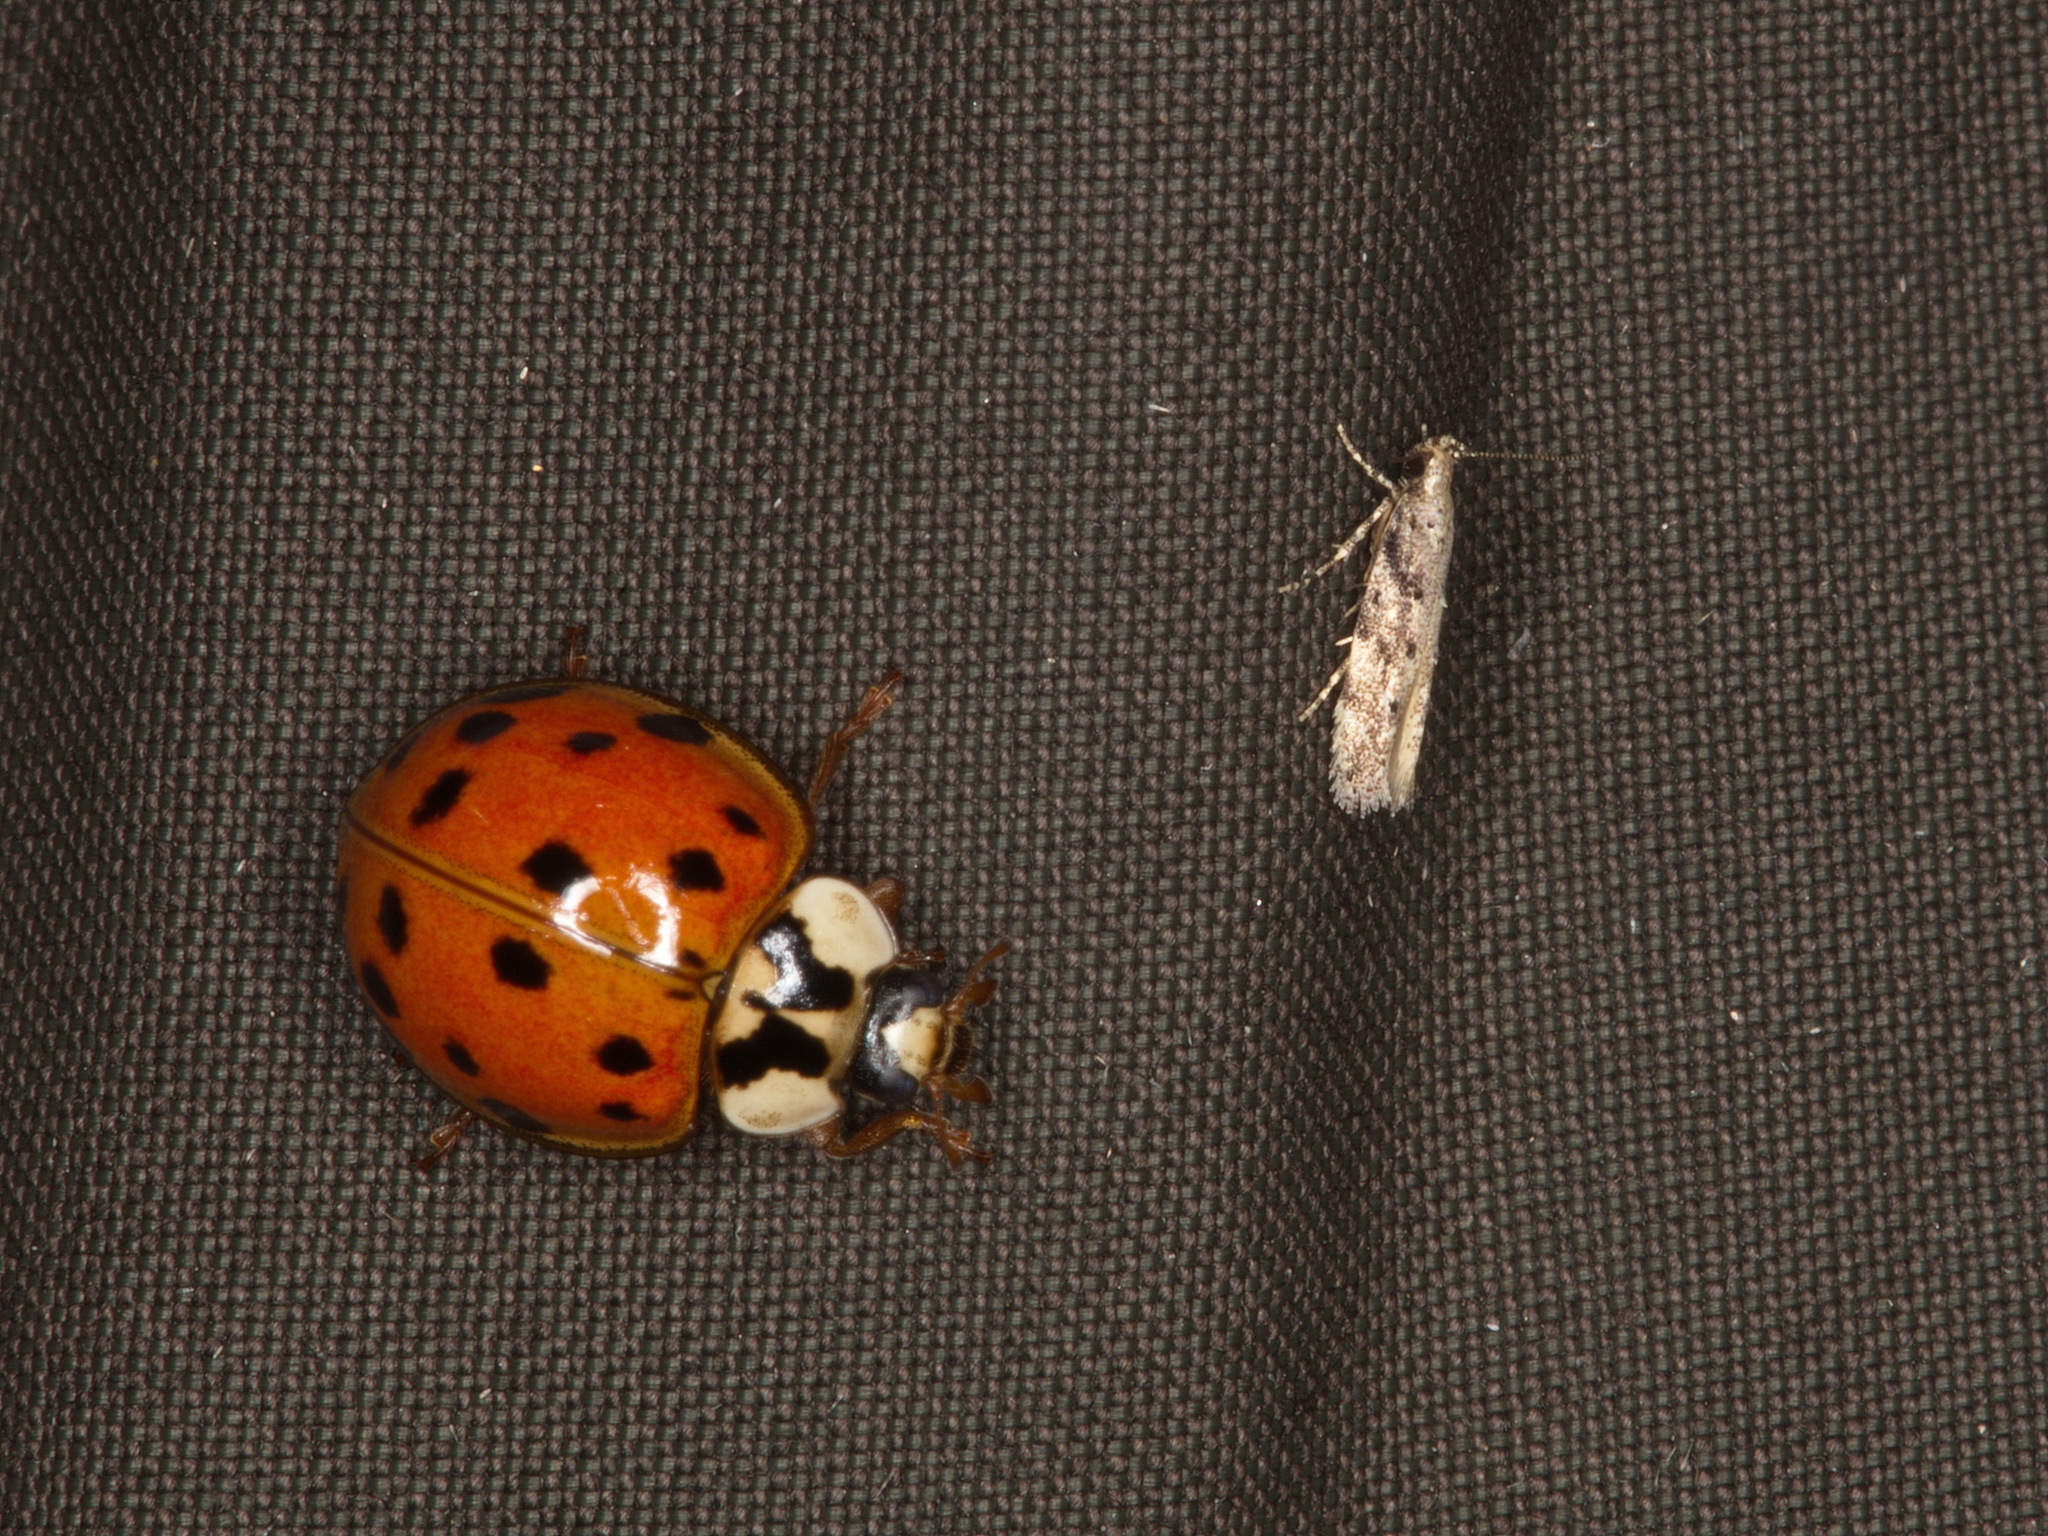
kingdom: Animalia
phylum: Arthropoda
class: Insecta
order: Coleoptera
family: Coccinellidae
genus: Harmonia
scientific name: Harmonia axyridis
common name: Harlequin ladybird
